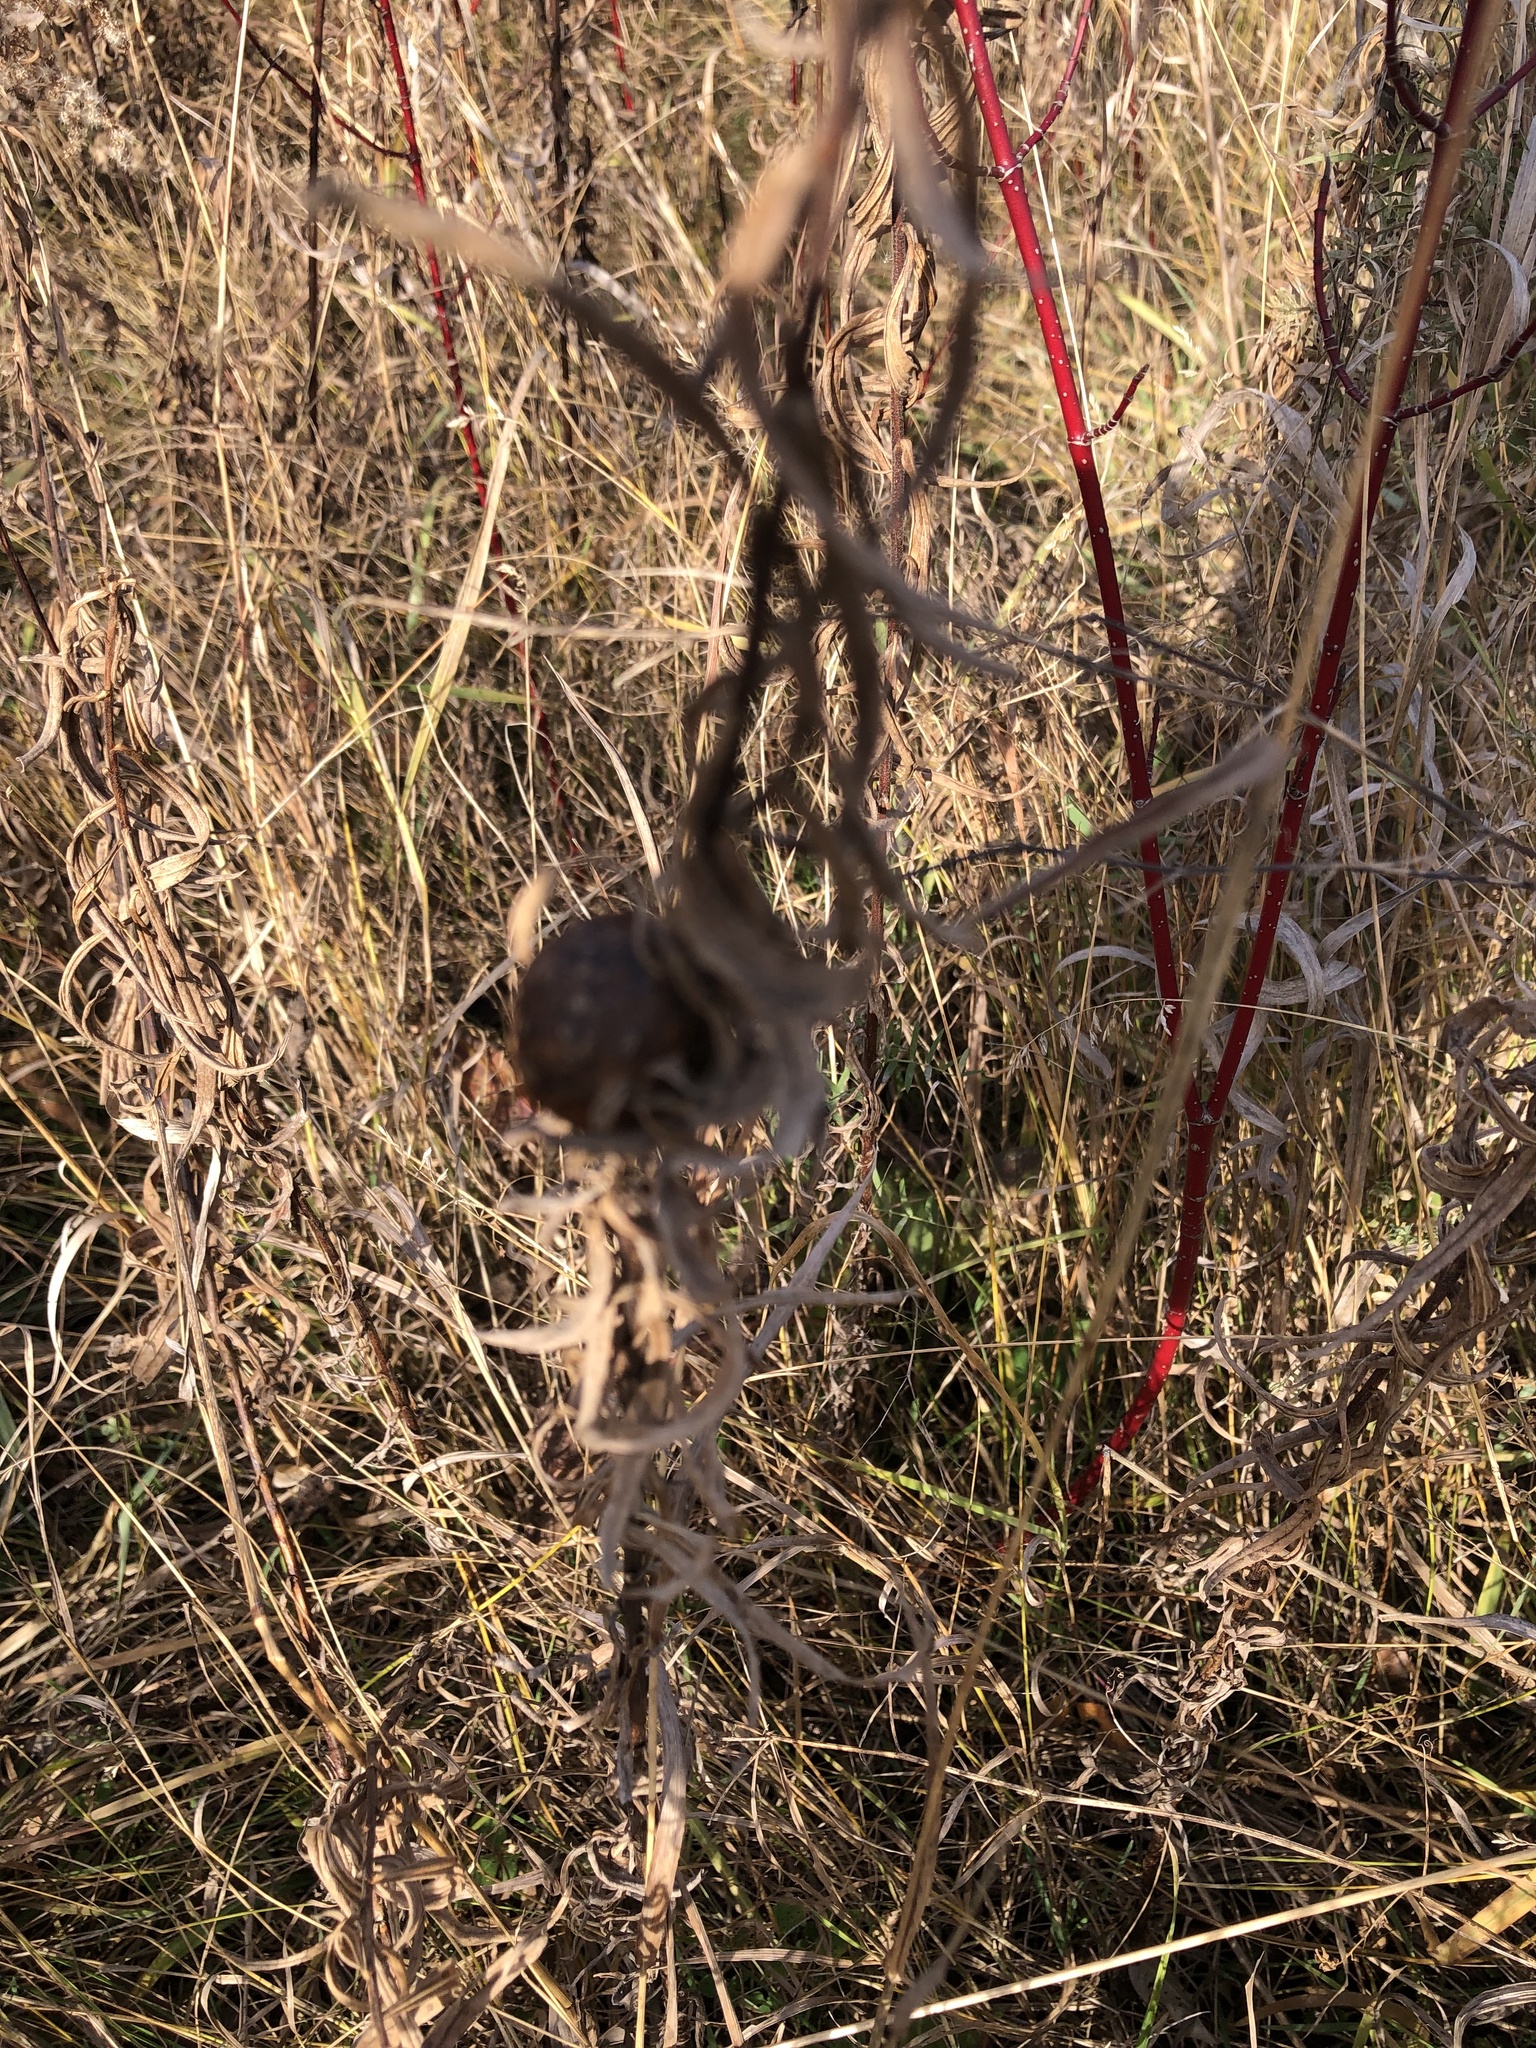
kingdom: Animalia
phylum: Arthropoda
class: Insecta
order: Diptera
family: Tephritidae
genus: Eurosta
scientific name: Eurosta solidaginis
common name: Goldenrod gall fly
